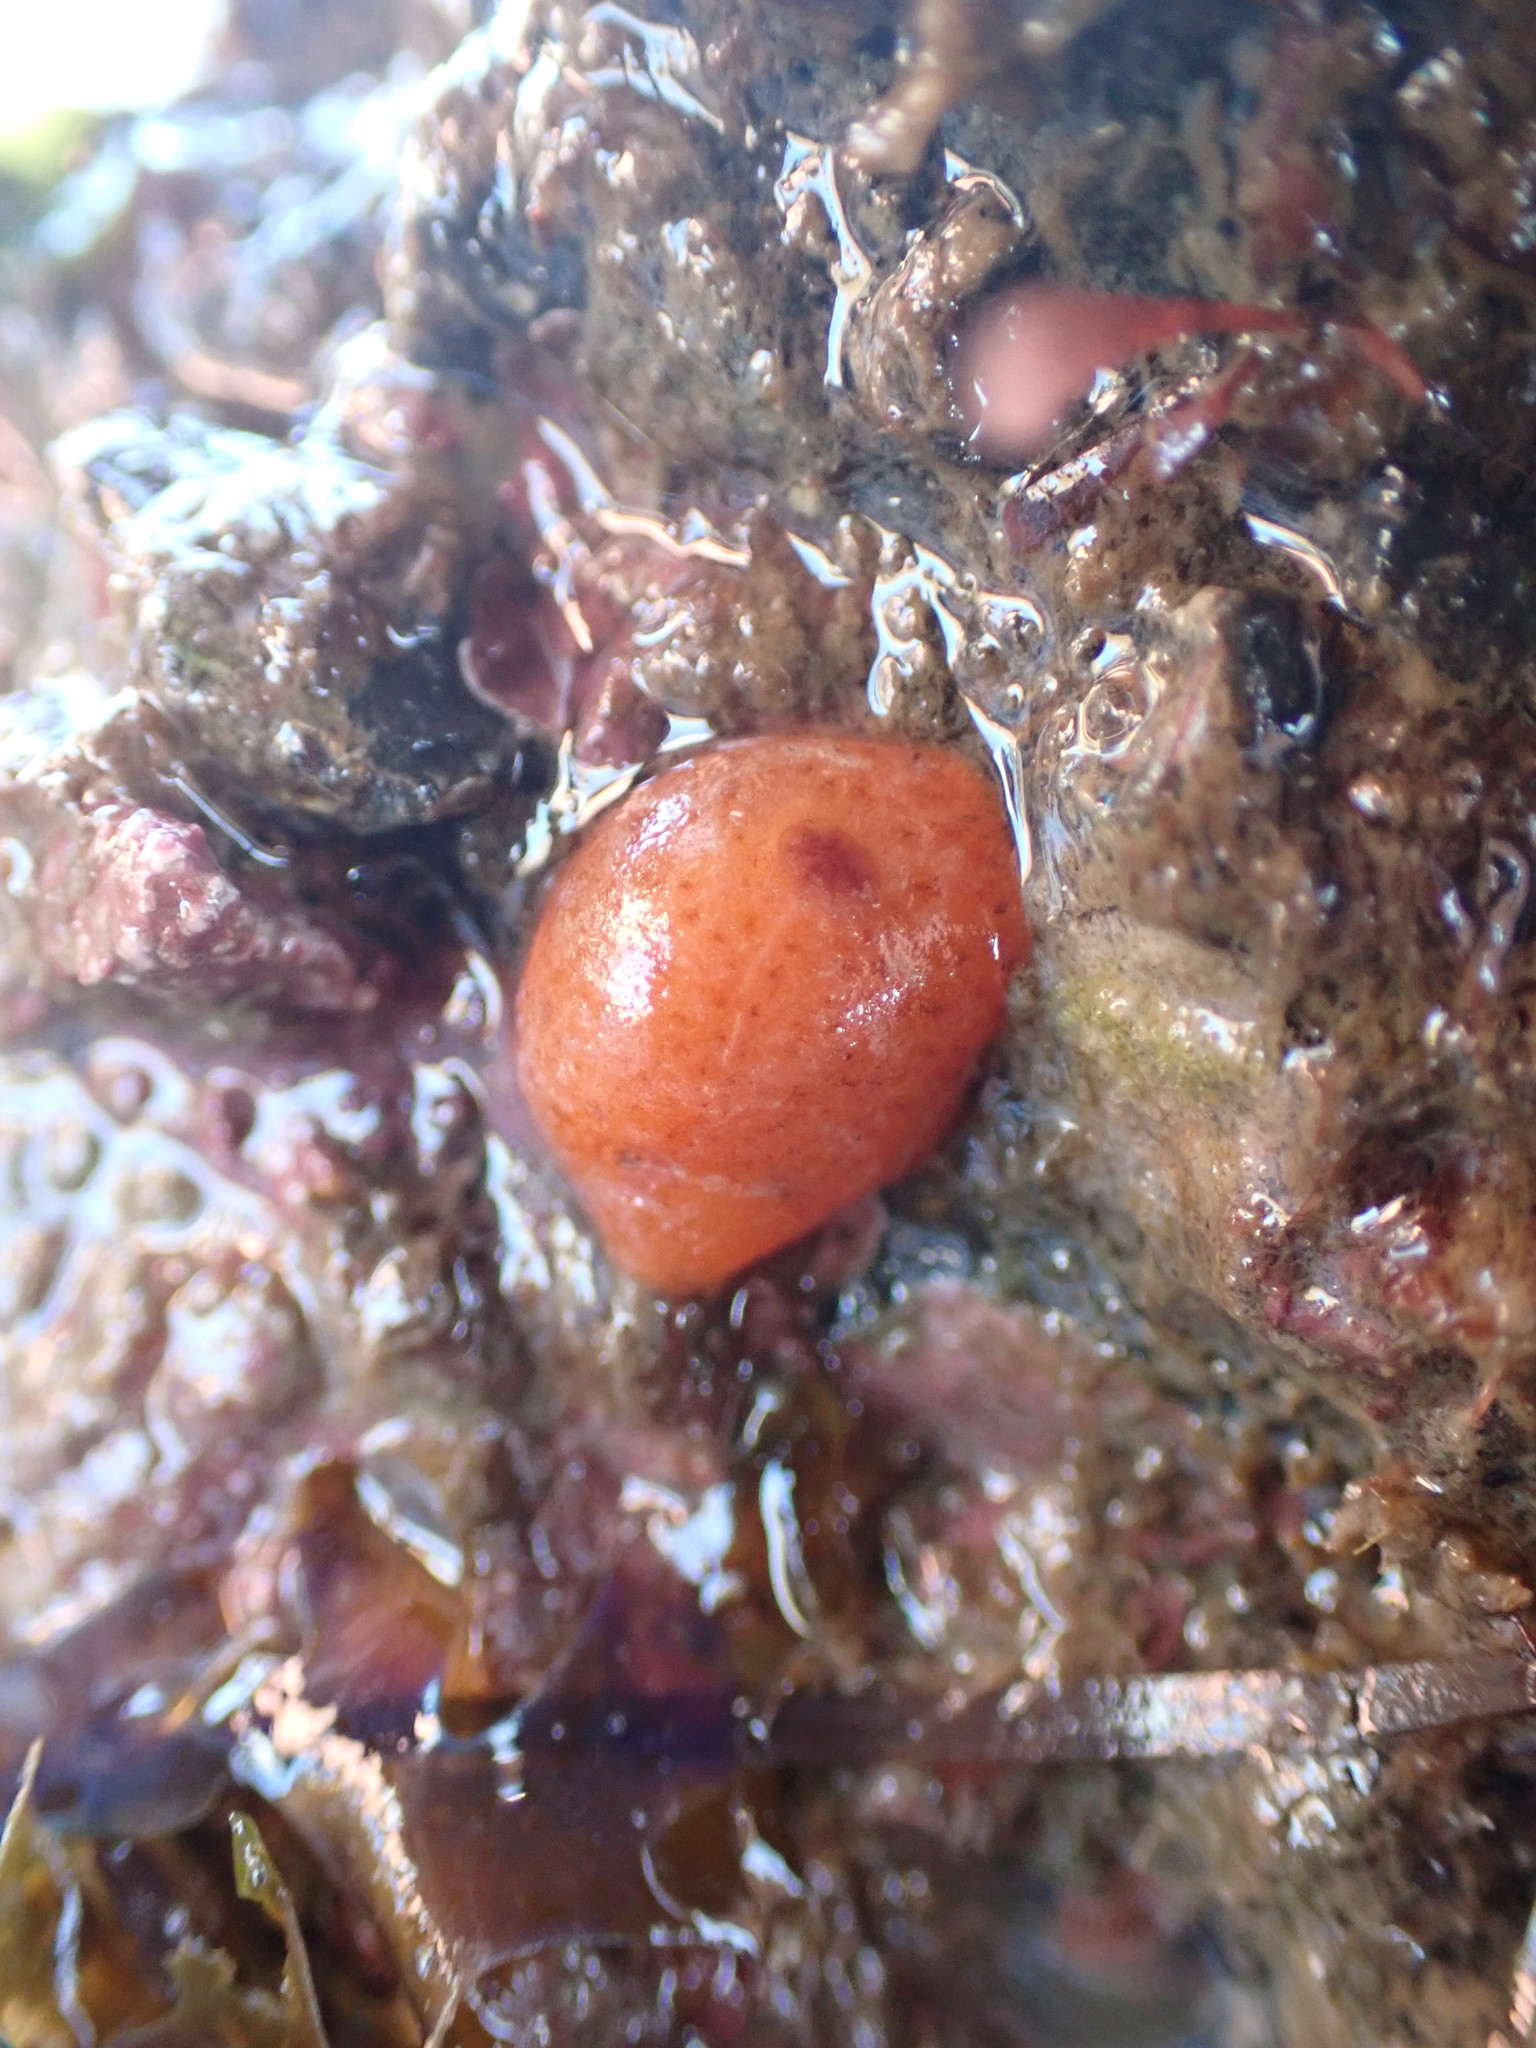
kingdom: Animalia
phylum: Mollusca
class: Gastropoda
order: Nudibranchia
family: Discodorididae
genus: Rostanga
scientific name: Rostanga muscula
